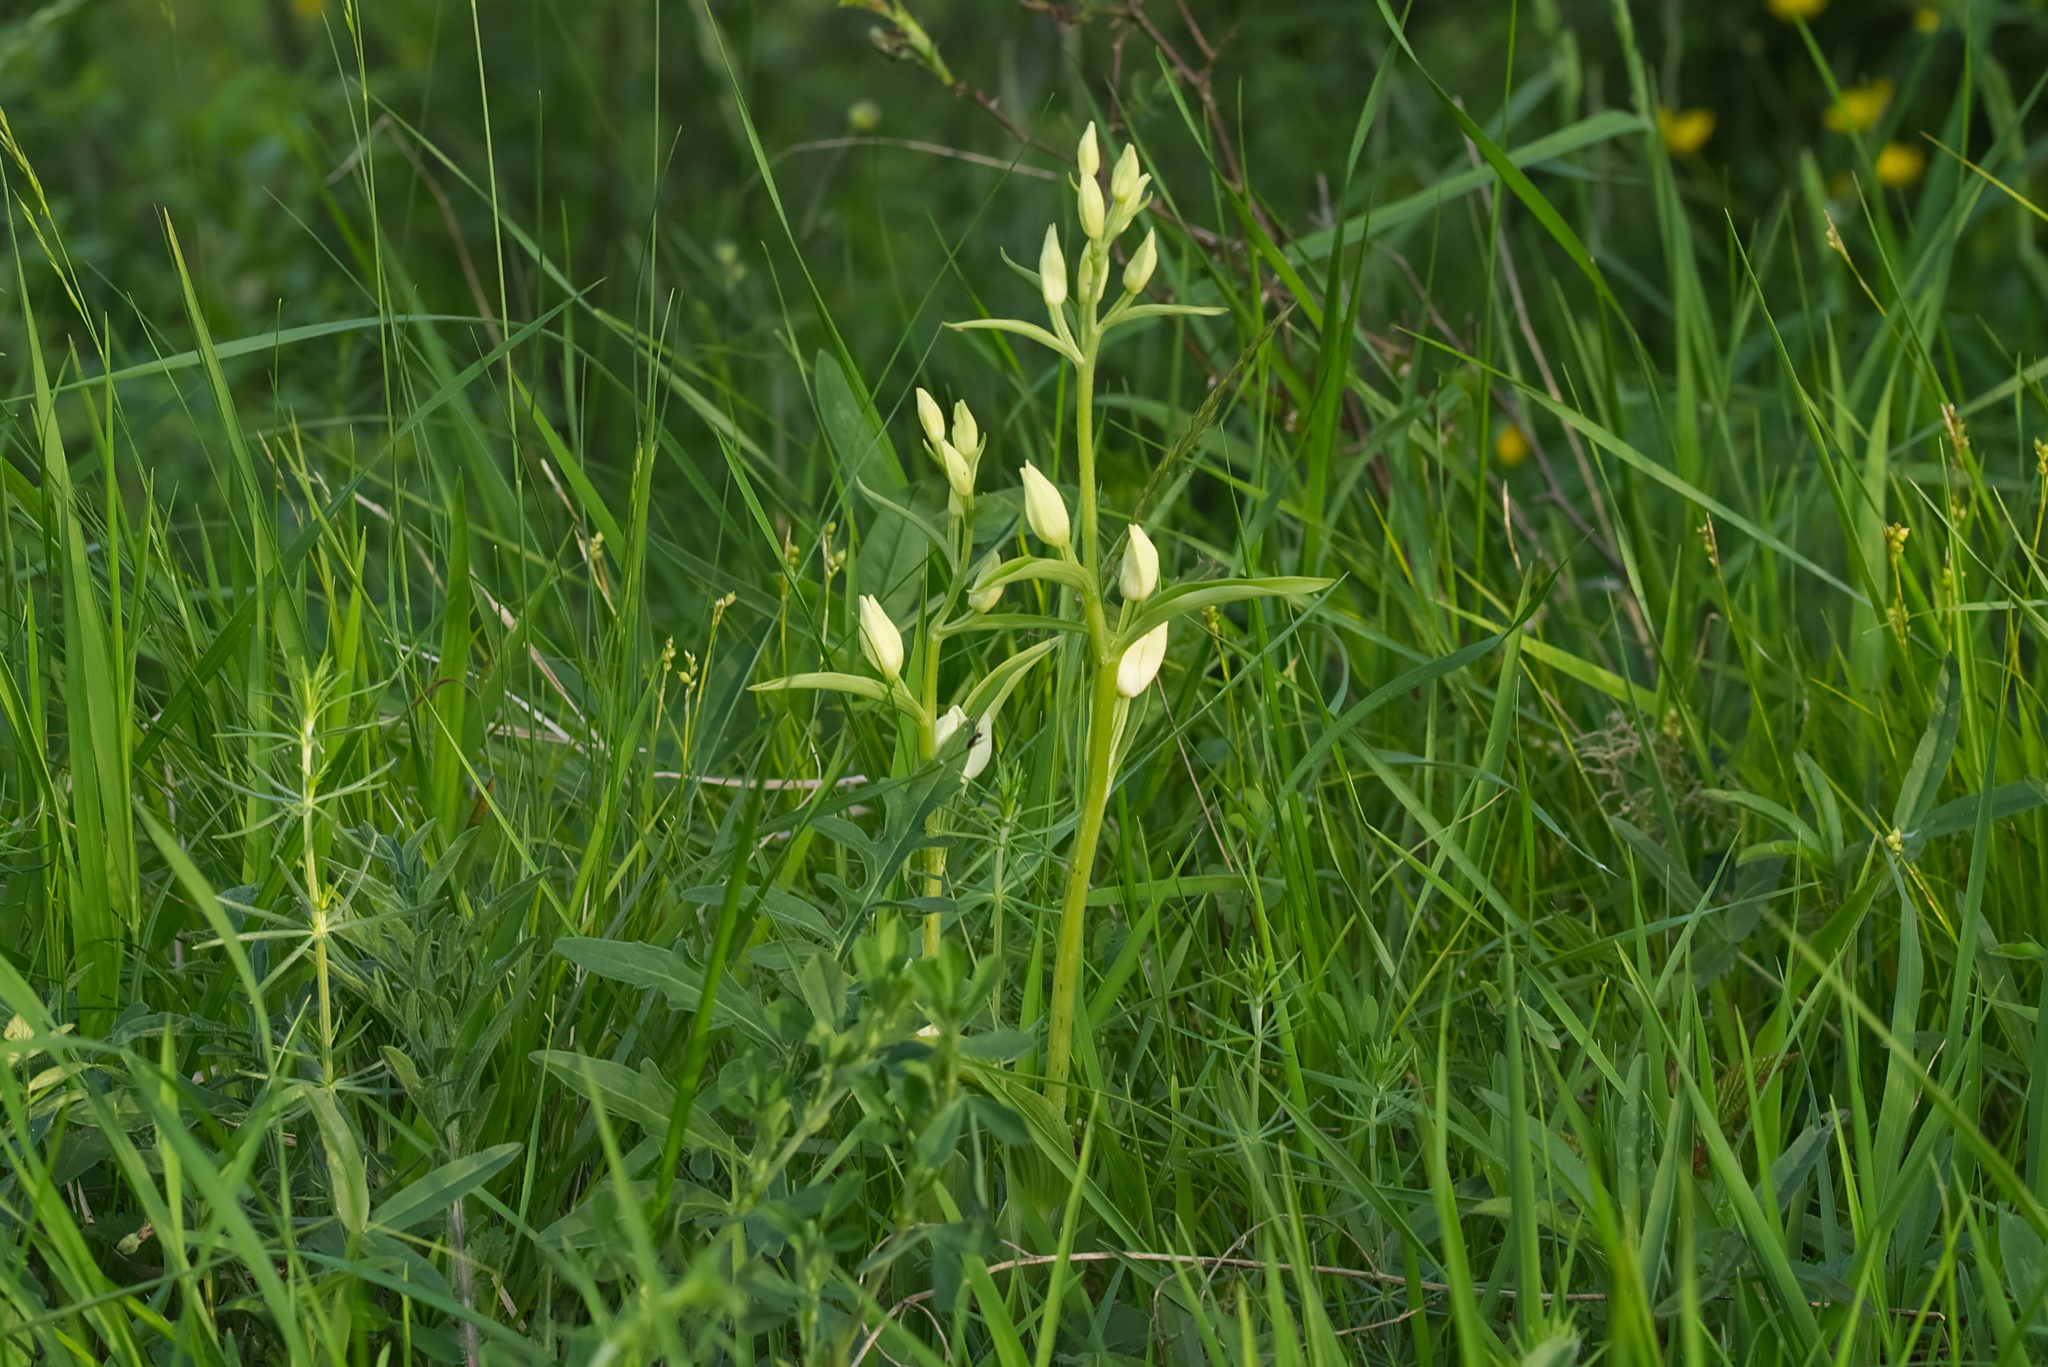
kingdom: Plantae
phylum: Tracheophyta
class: Liliopsida
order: Asparagales
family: Orchidaceae
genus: Cephalanthera
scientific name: Cephalanthera damasonium
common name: White helleborine
